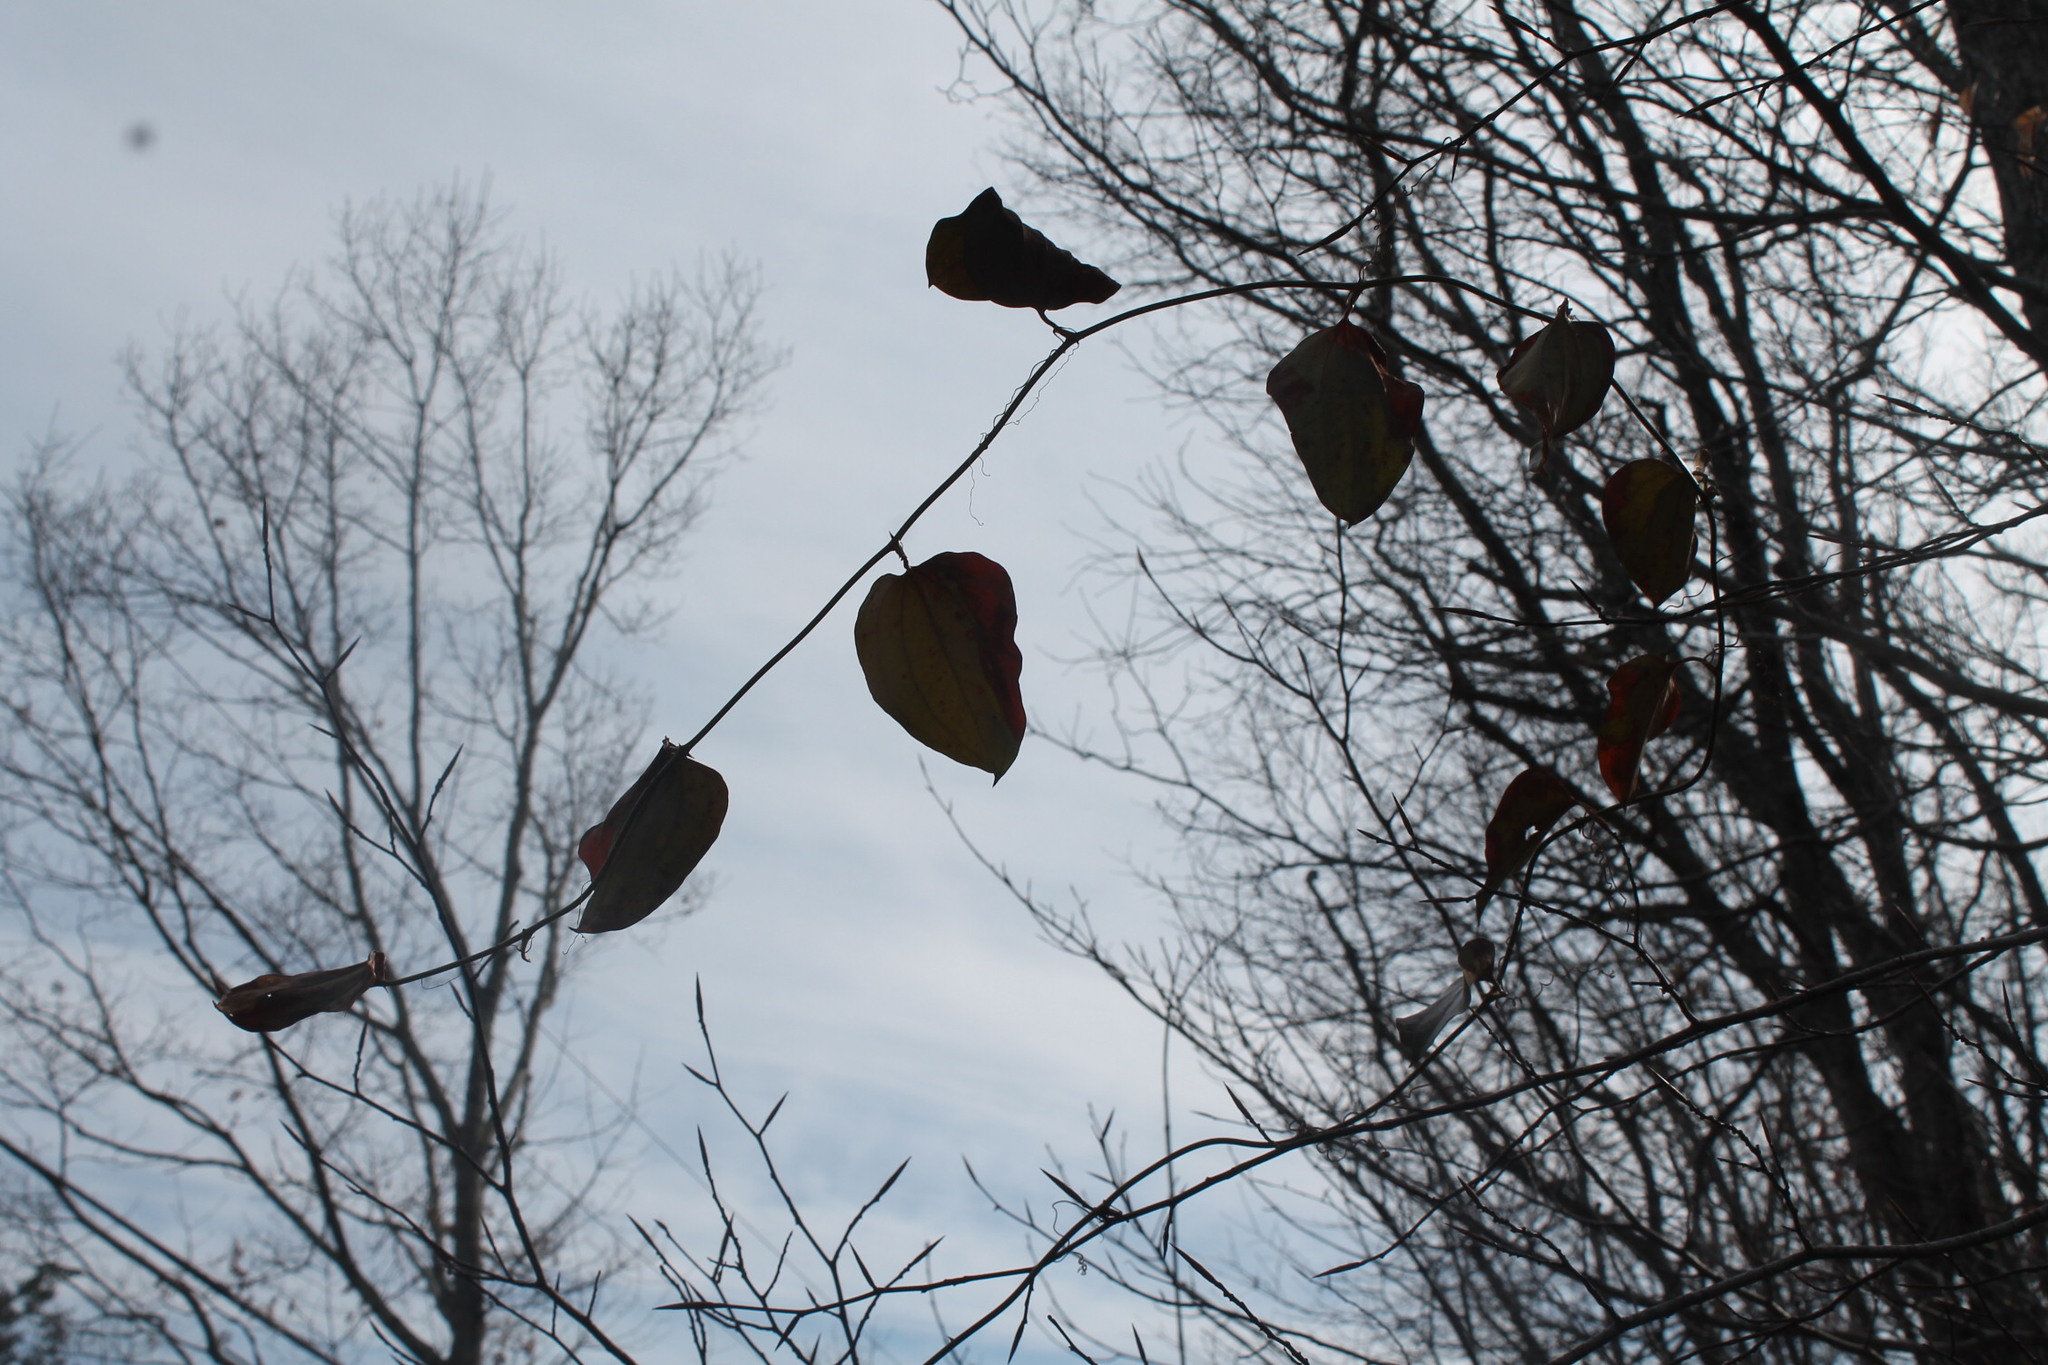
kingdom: Plantae
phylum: Tracheophyta
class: Liliopsida
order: Liliales
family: Smilacaceae
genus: Smilax
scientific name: Smilax glauca
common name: Cat greenbrier
